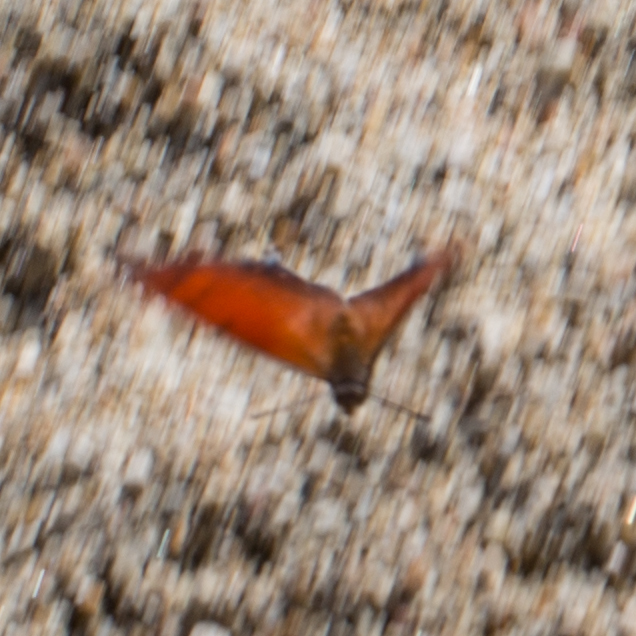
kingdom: Animalia
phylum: Arthropoda
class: Insecta
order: Lepidoptera
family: Nymphalidae
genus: Anaea
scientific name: Anaea aidea
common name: Tropical leafwing
